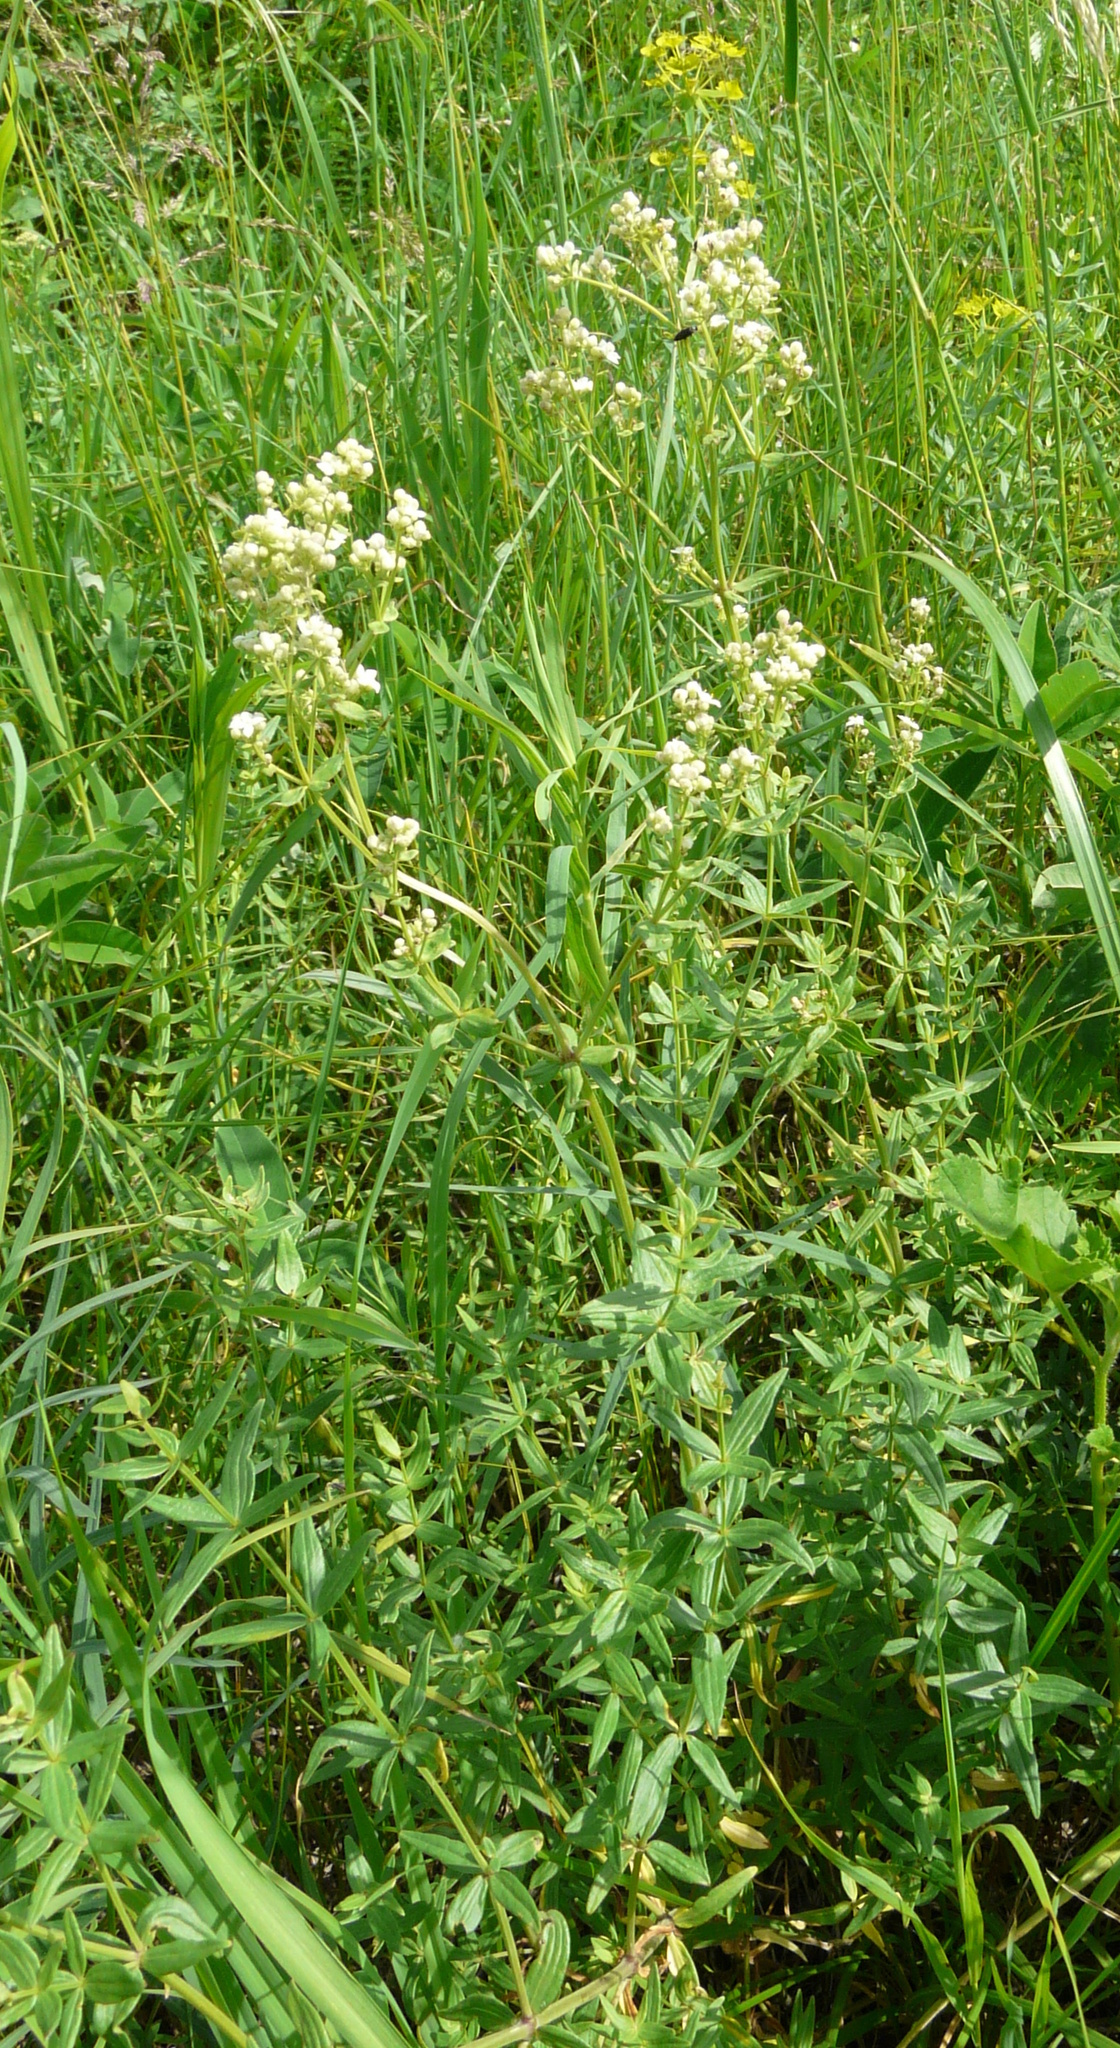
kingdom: Plantae
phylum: Tracheophyta
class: Magnoliopsida
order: Gentianales
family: Rubiaceae
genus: Galium
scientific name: Galium boreale
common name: Northern bedstraw
